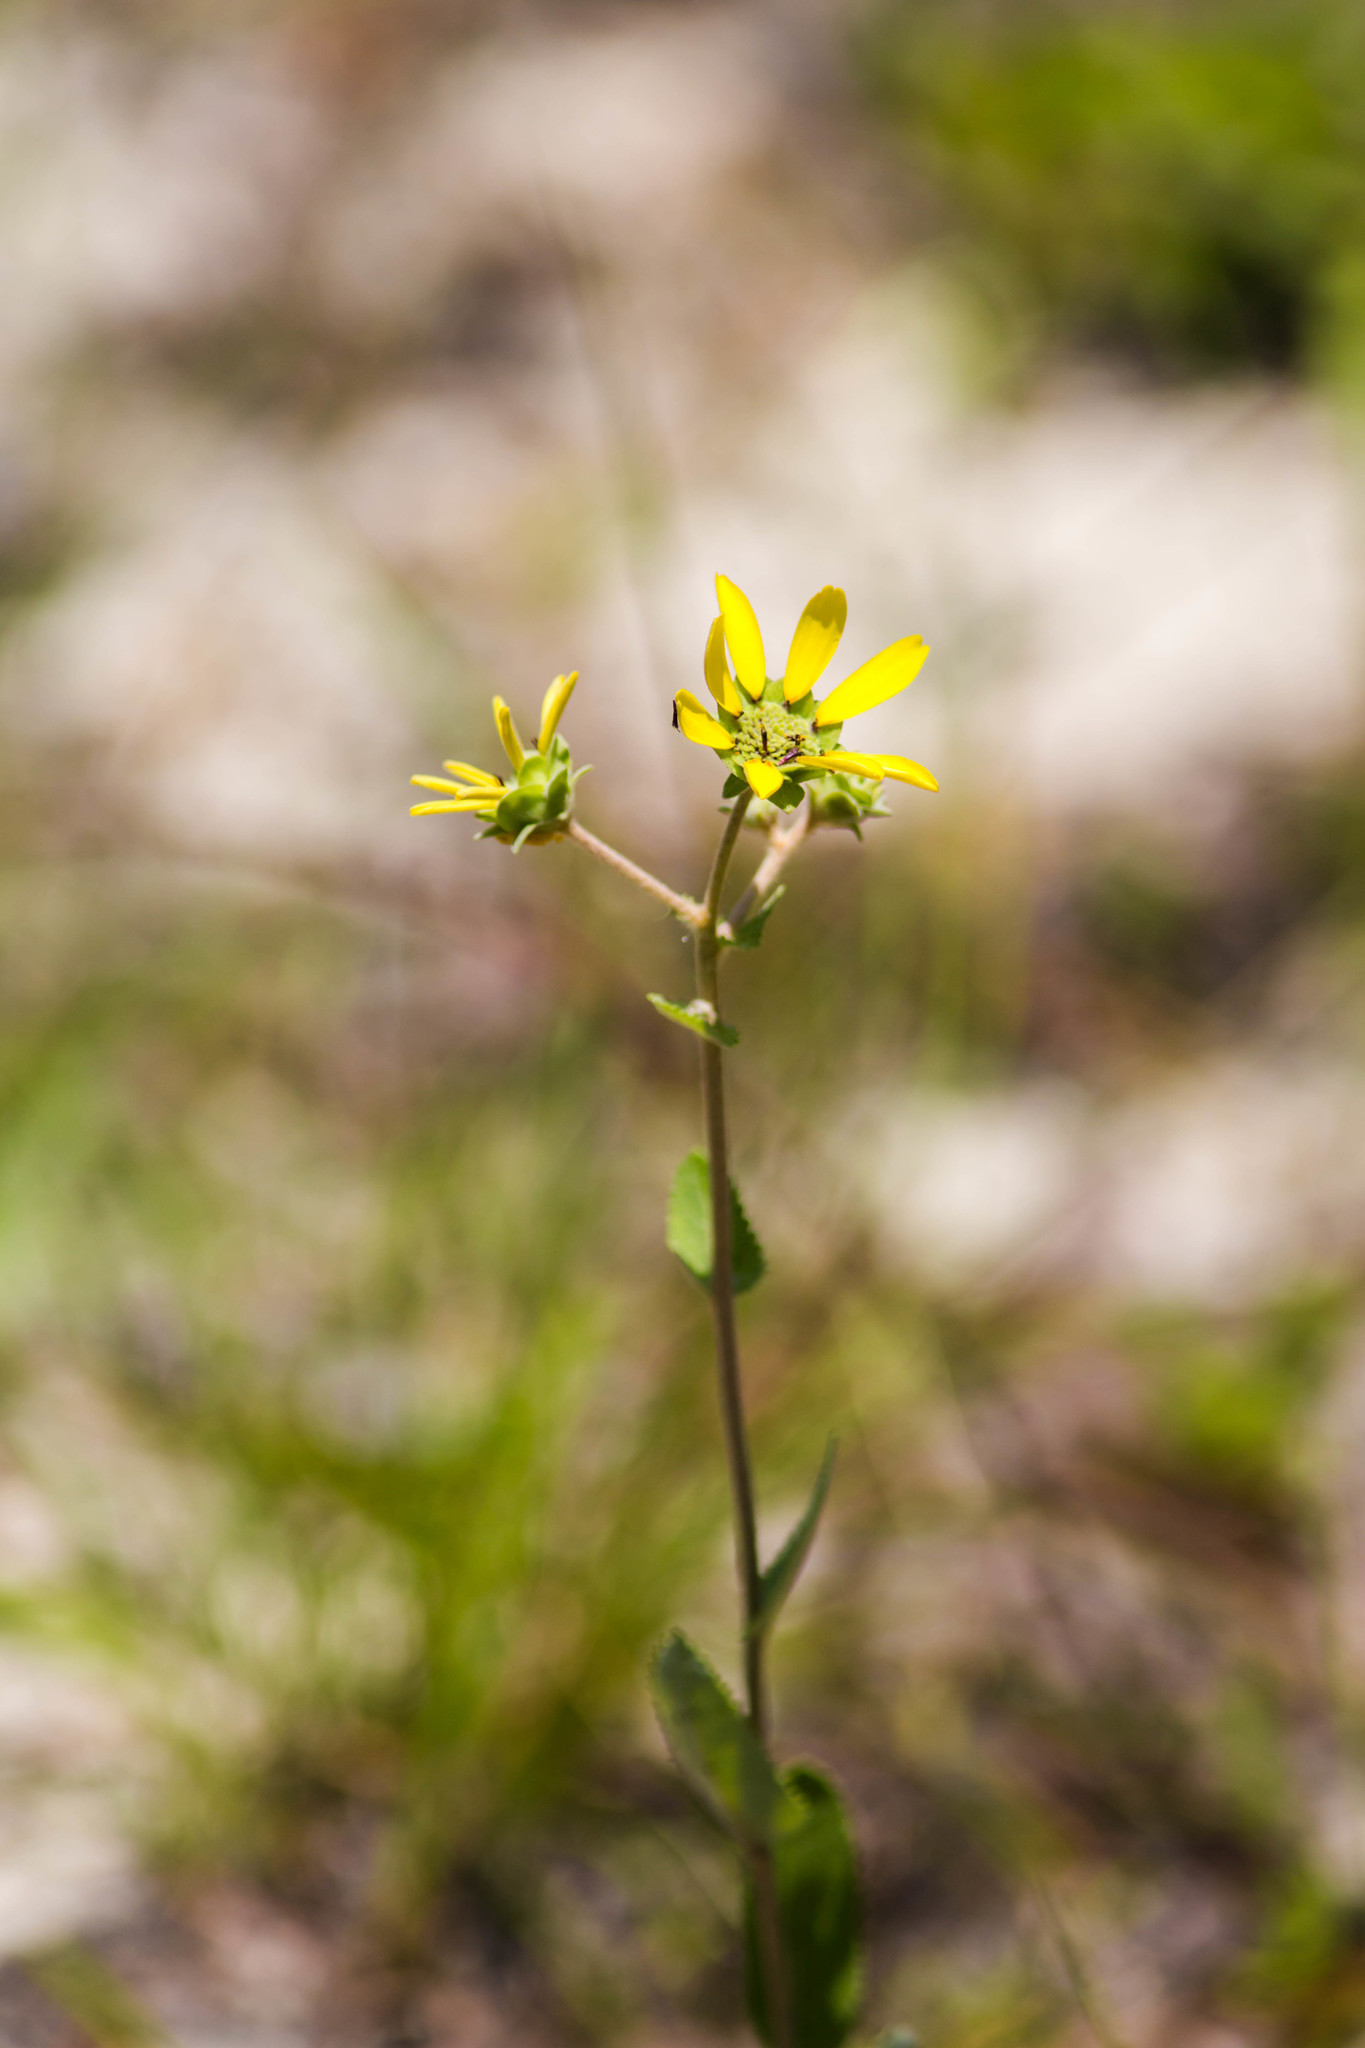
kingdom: Plantae
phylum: Tracheophyta
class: Magnoliopsida
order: Asterales
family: Asteraceae
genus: Berlandiera
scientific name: Berlandiera pumila
